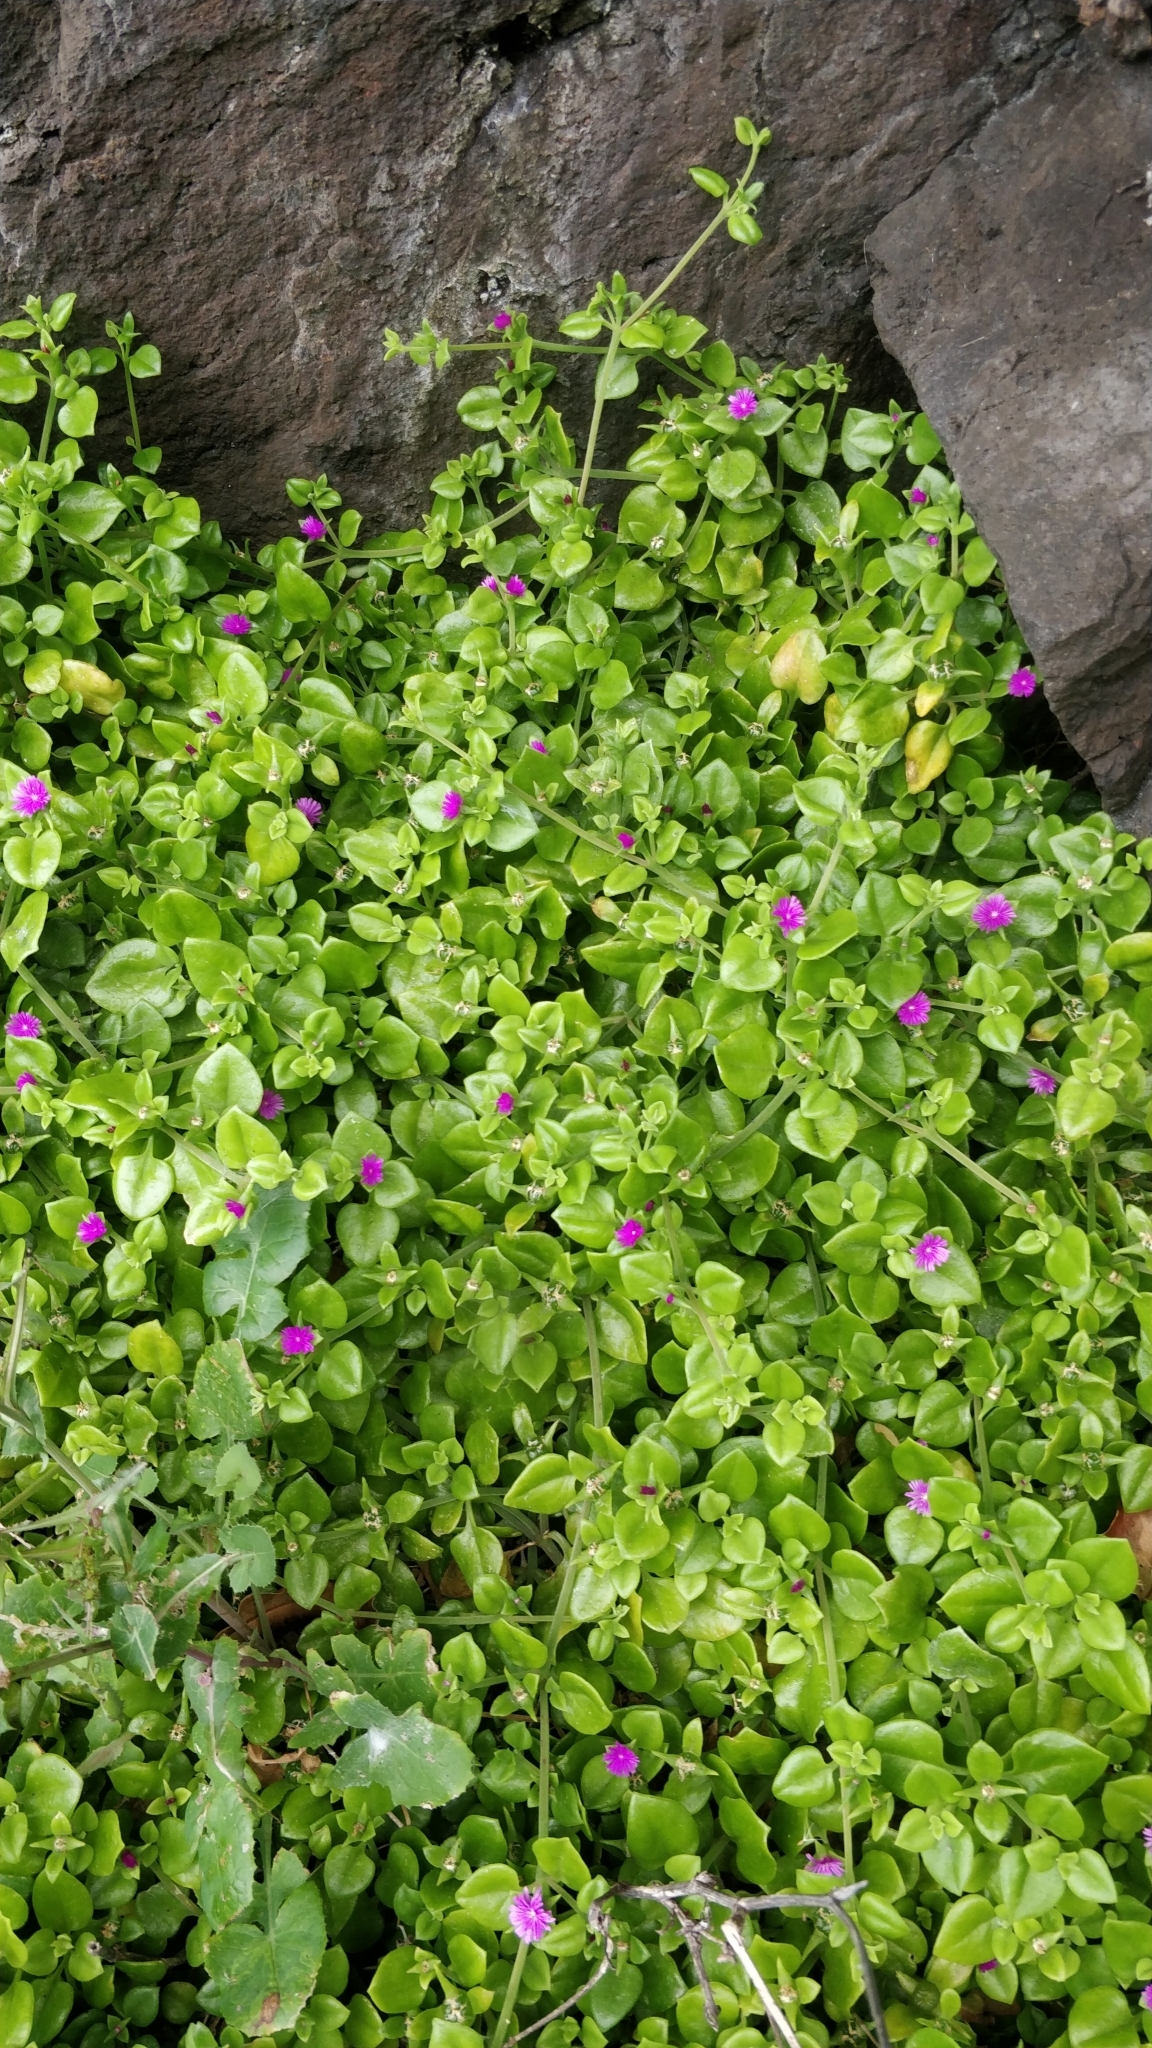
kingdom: Plantae
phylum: Tracheophyta
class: Magnoliopsida
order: Caryophyllales
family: Aizoaceae
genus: Mesembryanthemum
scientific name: Mesembryanthemum cordifolium
